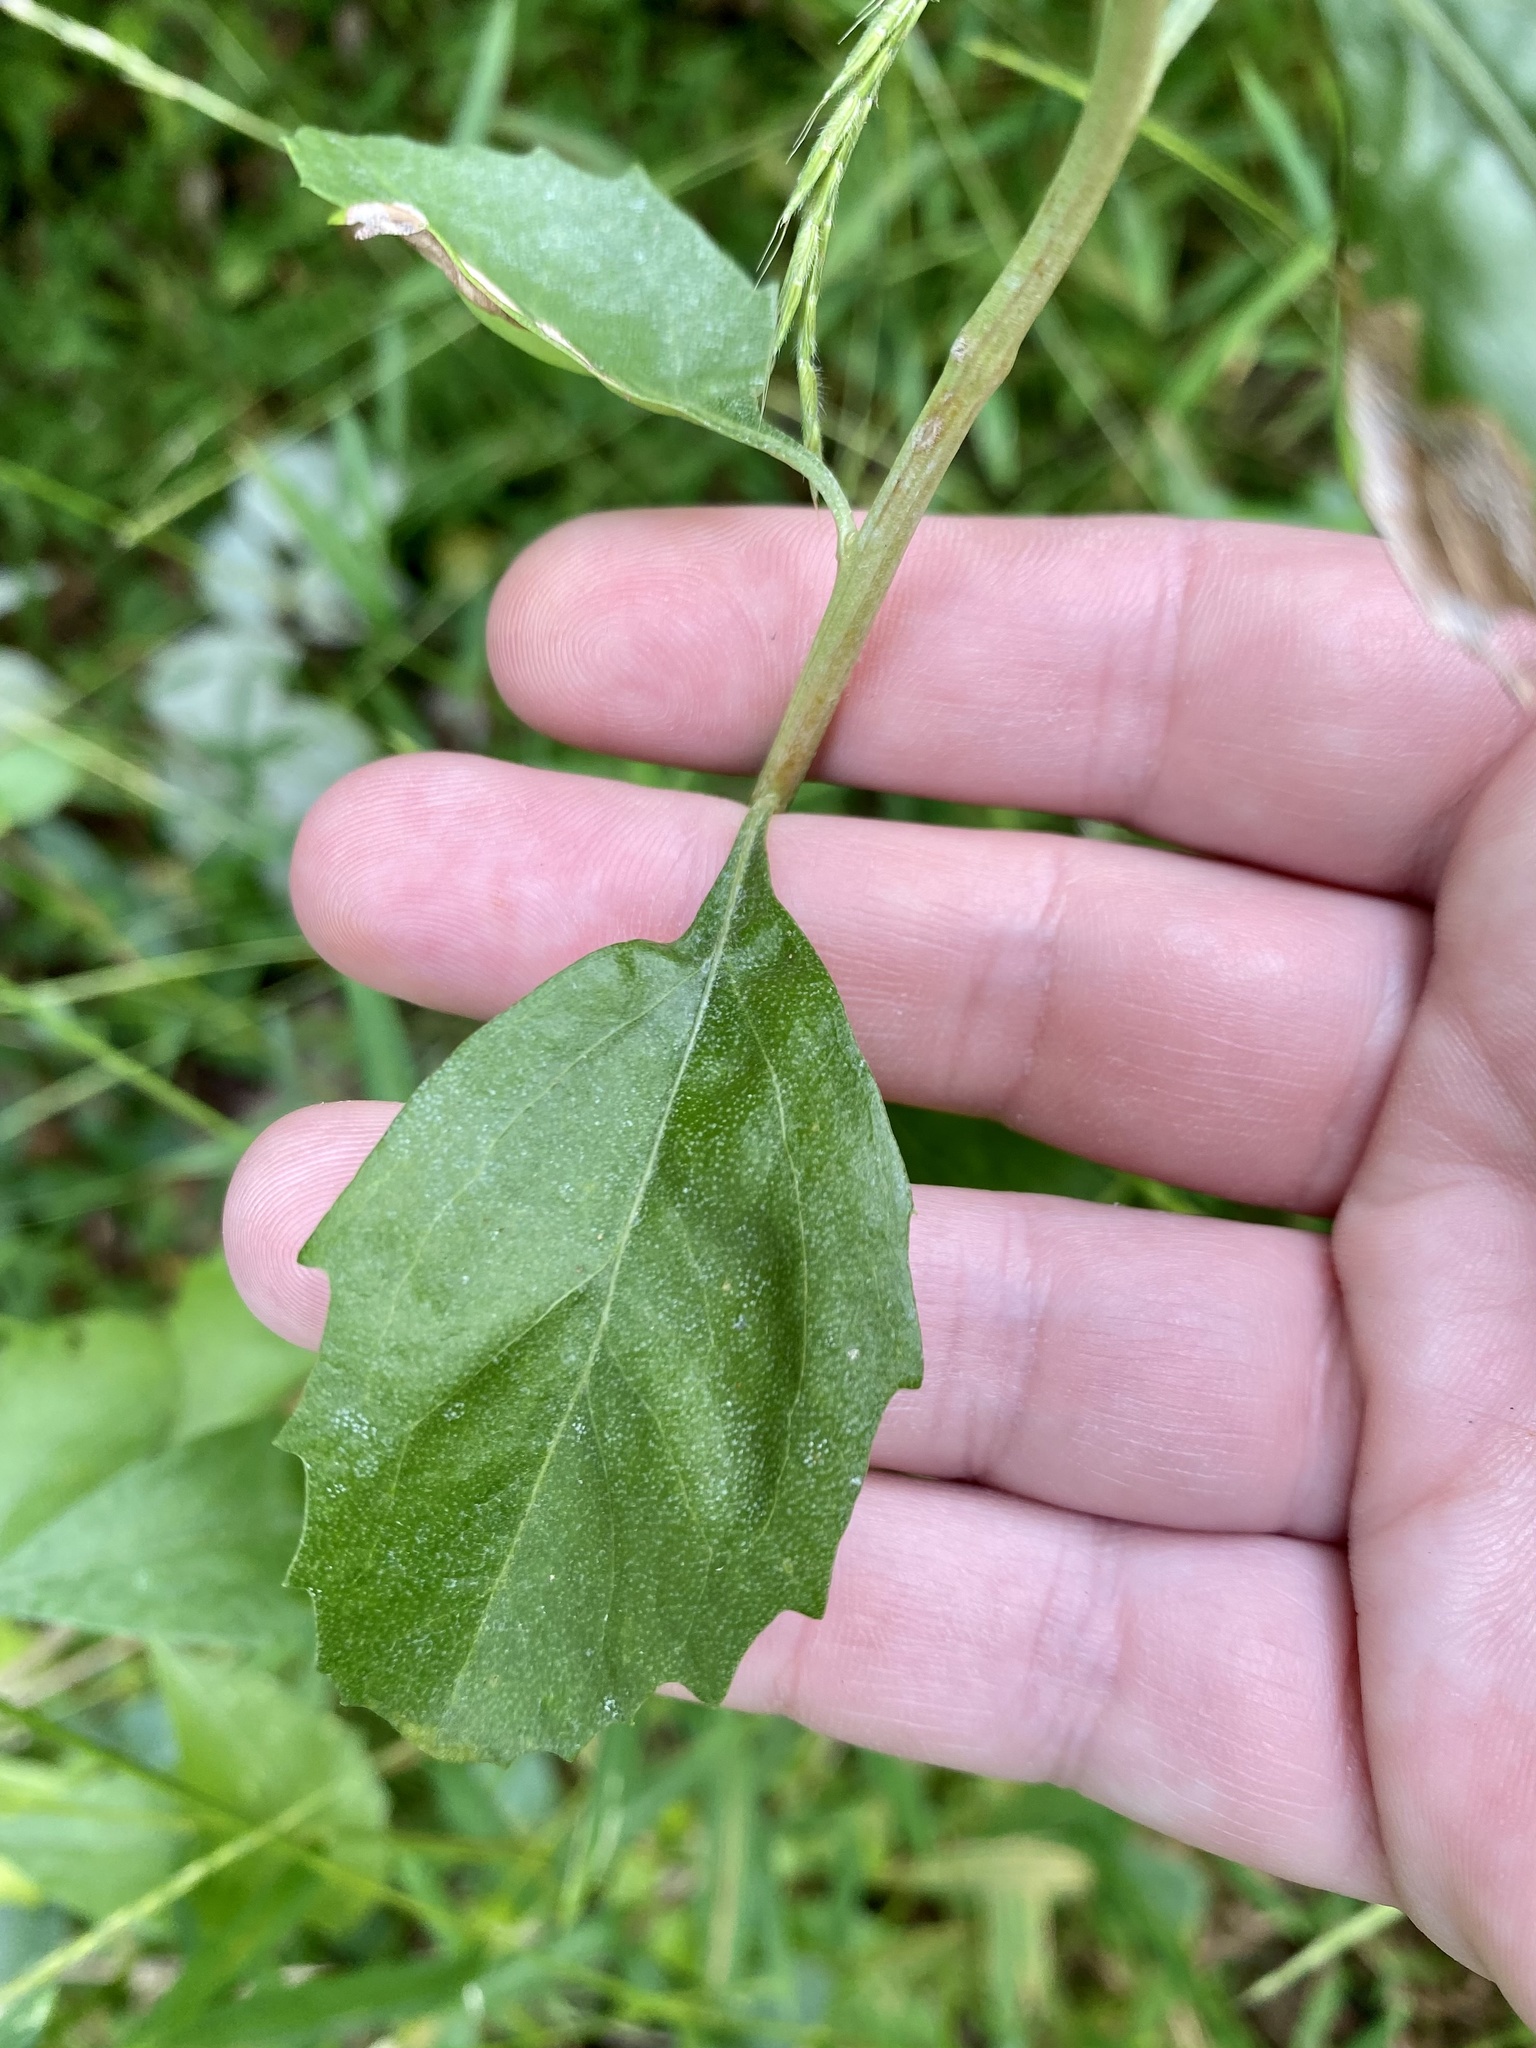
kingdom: Plantae
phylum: Tracheophyta
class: Magnoliopsida
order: Asterales
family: Asteraceae
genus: Baccharis
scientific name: Baccharis halimifolia
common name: Eastern baccharis
